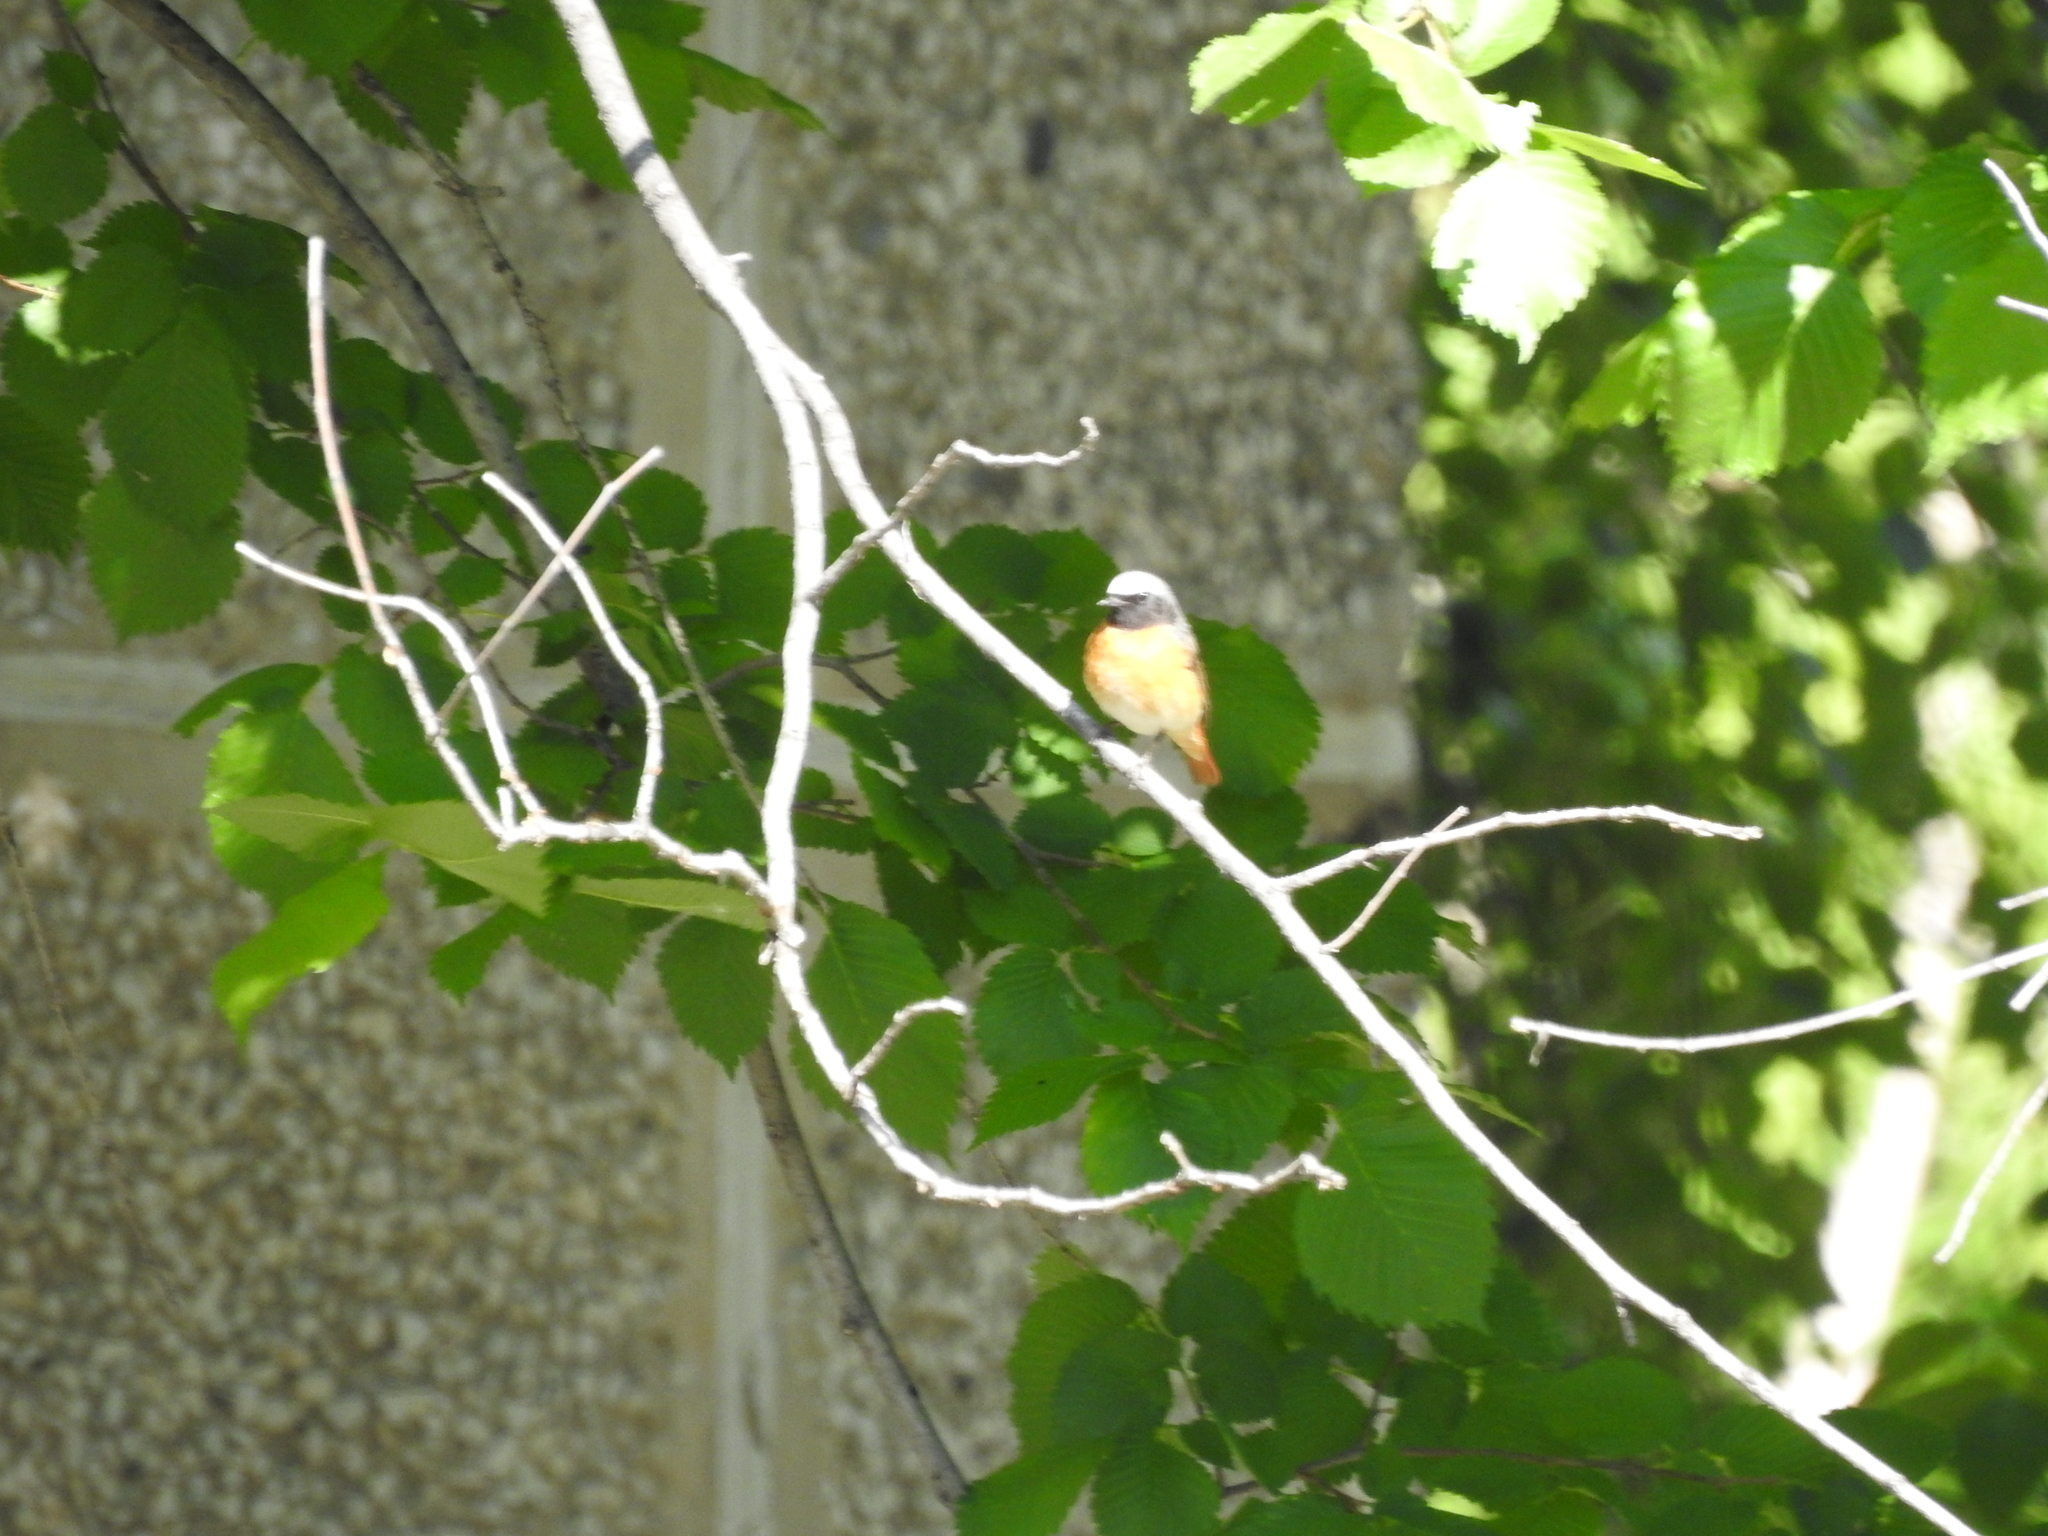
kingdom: Animalia
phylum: Chordata
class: Aves
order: Passeriformes
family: Muscicapidae
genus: Phoenicurus
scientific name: Phoenicurus phoenicurus
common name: Common redstart
